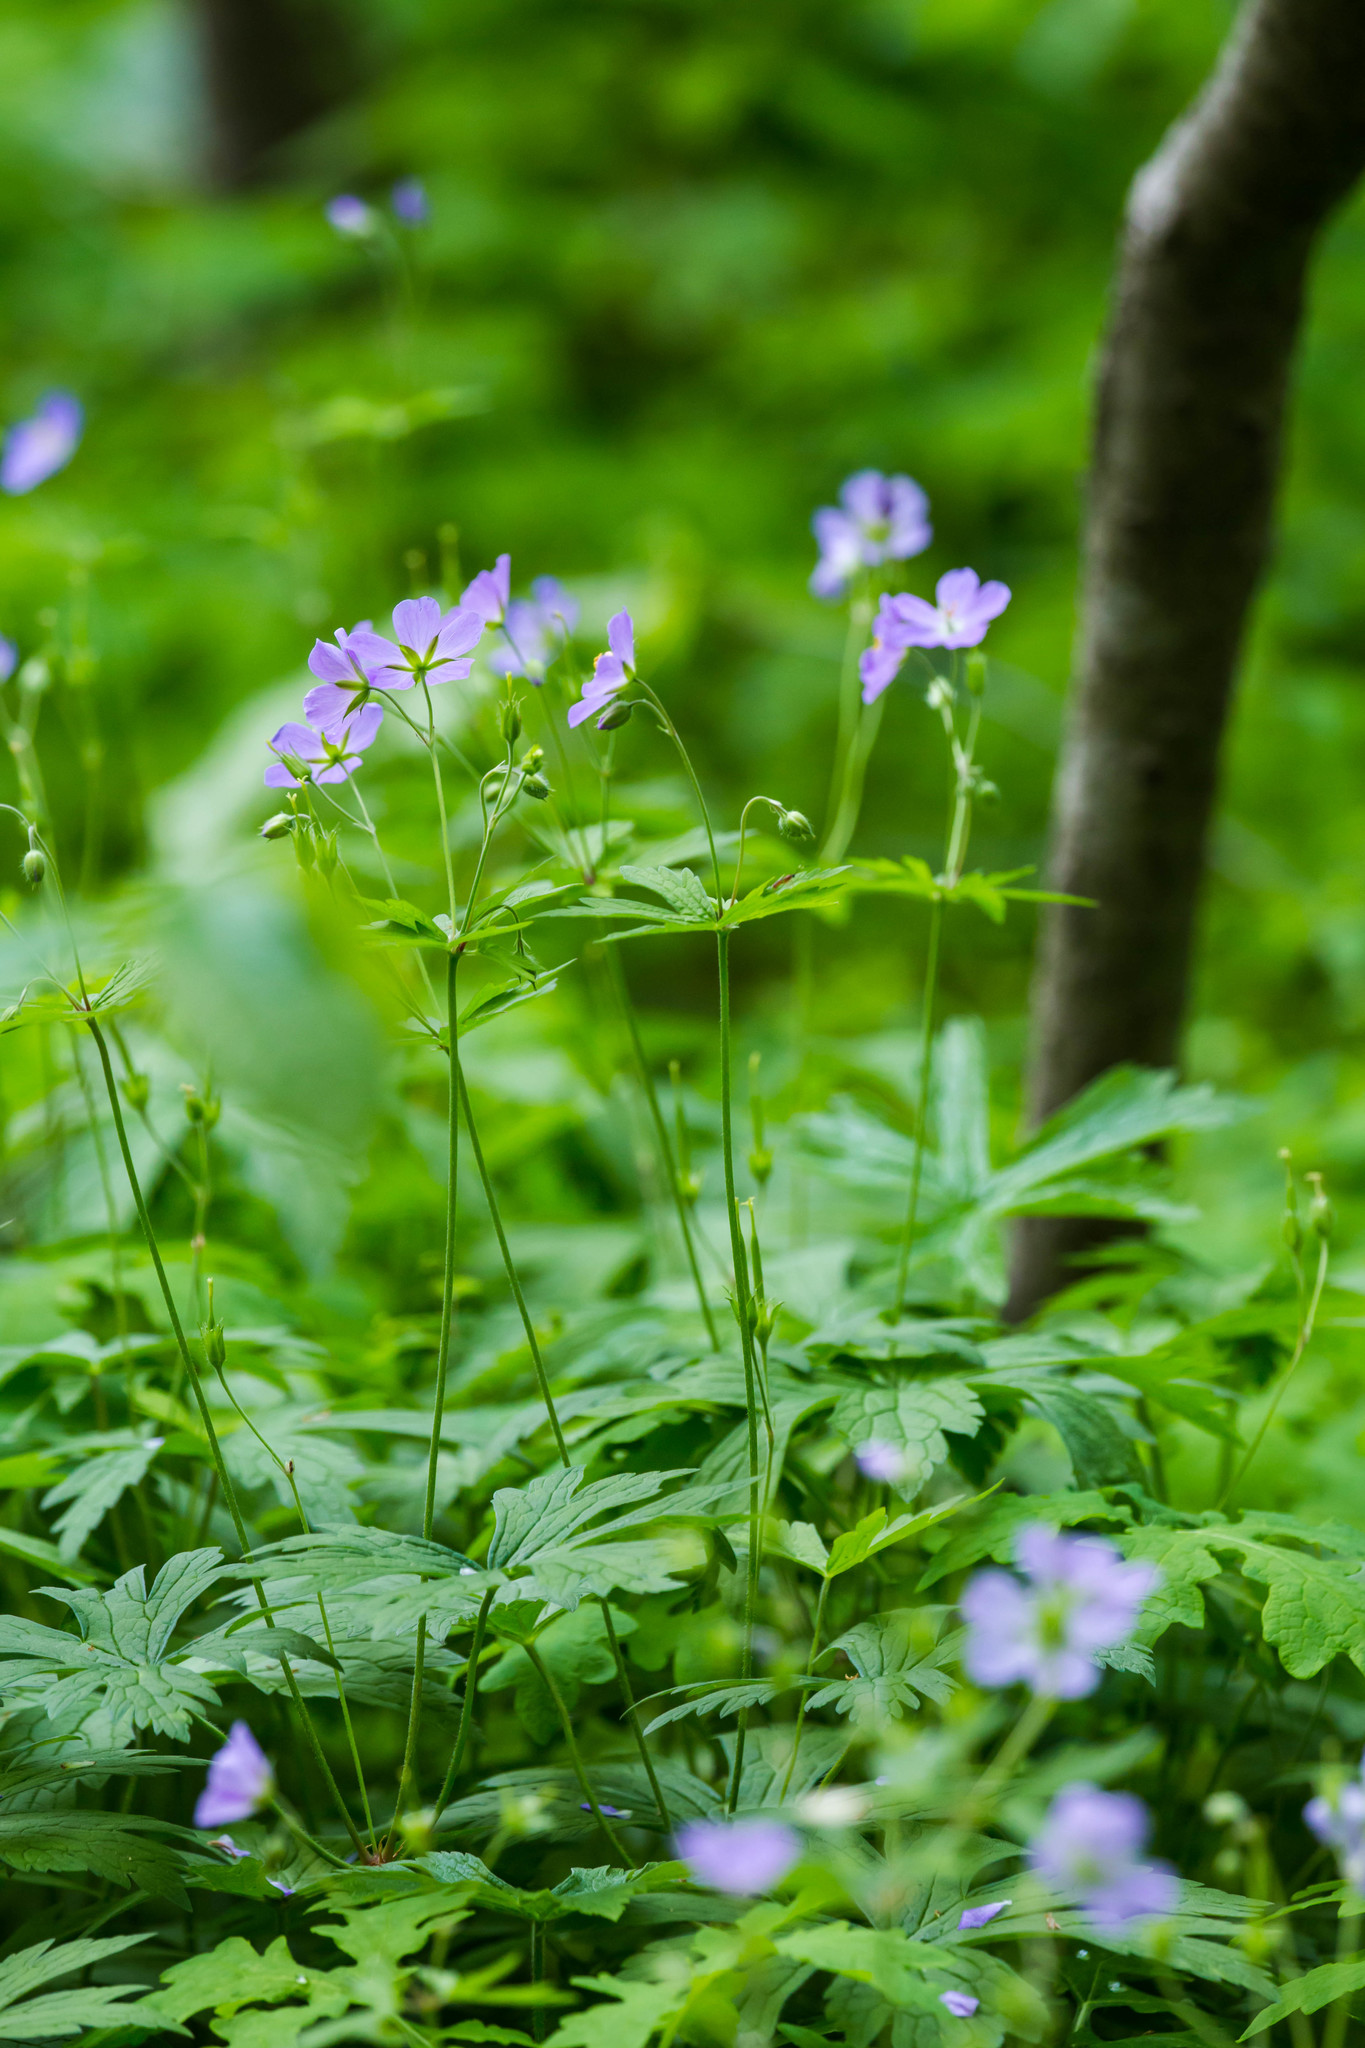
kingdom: Plantae
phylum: Tracheophyta
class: Magnoliopsida
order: Geraniales
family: Geraniaceae
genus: Geranium
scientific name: Geranium maculatum
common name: Spotted geranium
